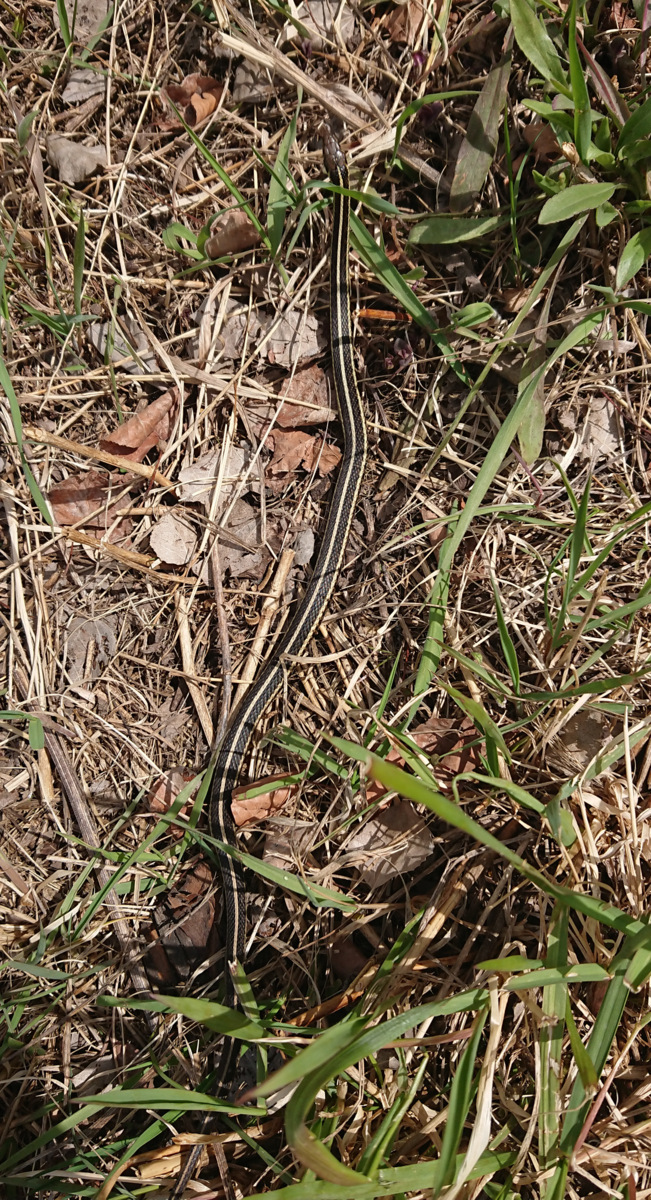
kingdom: Animalia
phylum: Chordata
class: Squamata
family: Colubridae
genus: Thamnophis
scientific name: Thamnophis butleri
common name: Butler's garter snake
